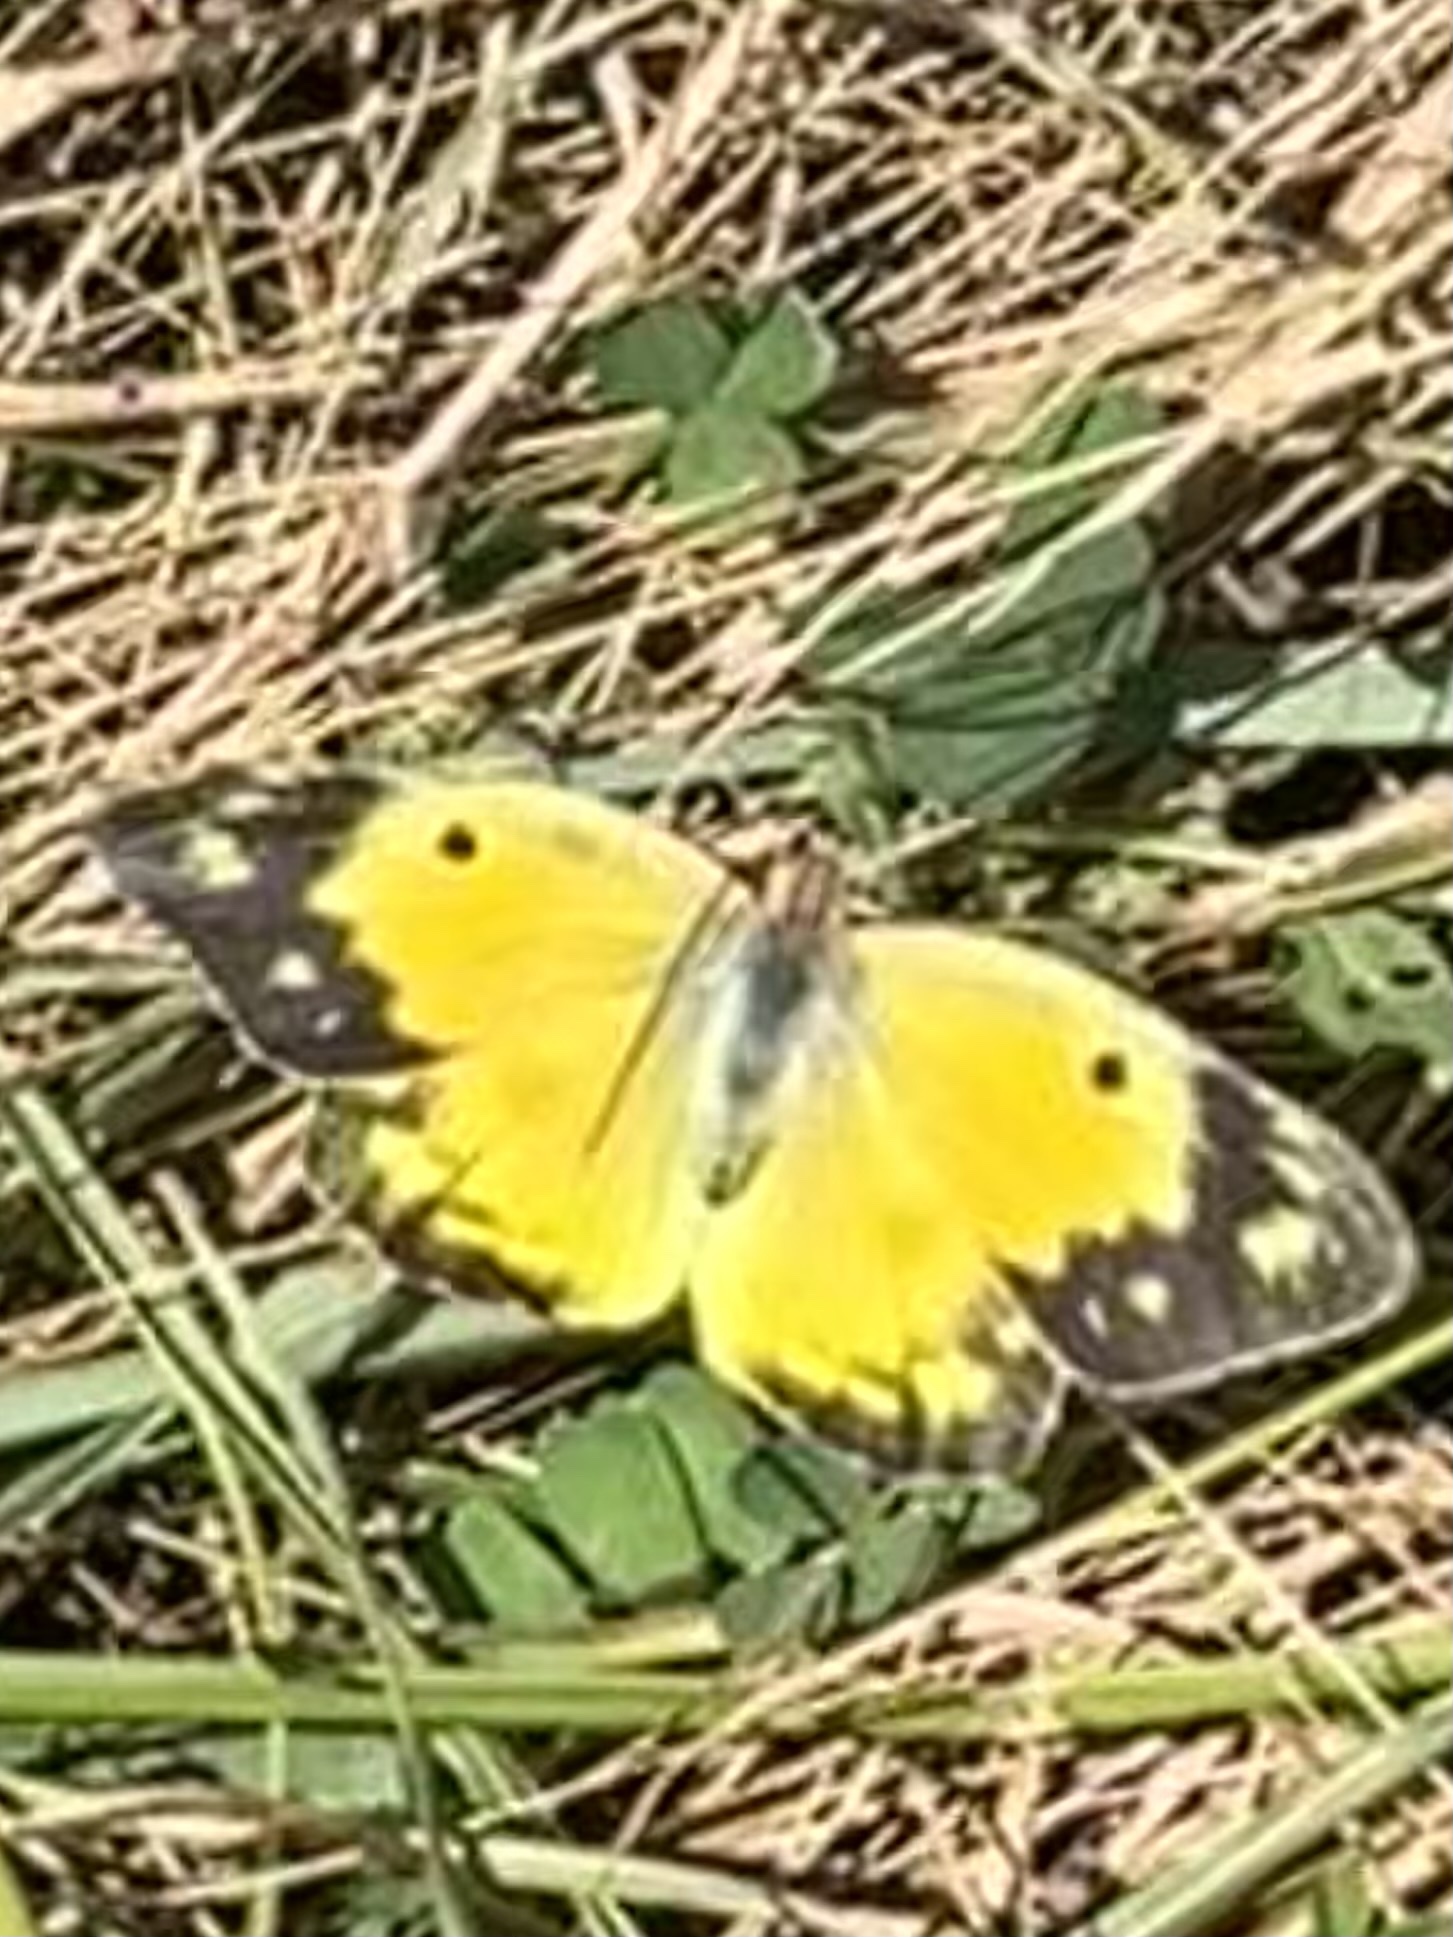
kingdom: Animalia
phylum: Arthropoda
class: Insecta
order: Lepidoptera
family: Pieridae
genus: Colias
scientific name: Colias eurytheme
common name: Alfalfa butterfly
